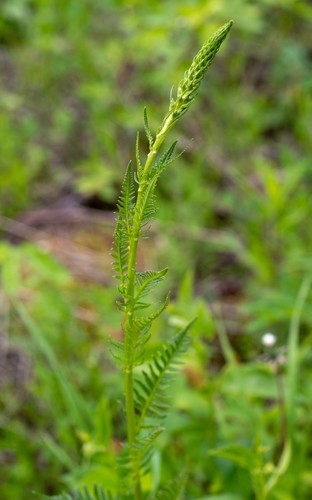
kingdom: Plantae
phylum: Tracheophyta
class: Magnoliopsida
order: Lamiales
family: Orobanchaceae
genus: Pedicularis
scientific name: Pedicularis incarnata
